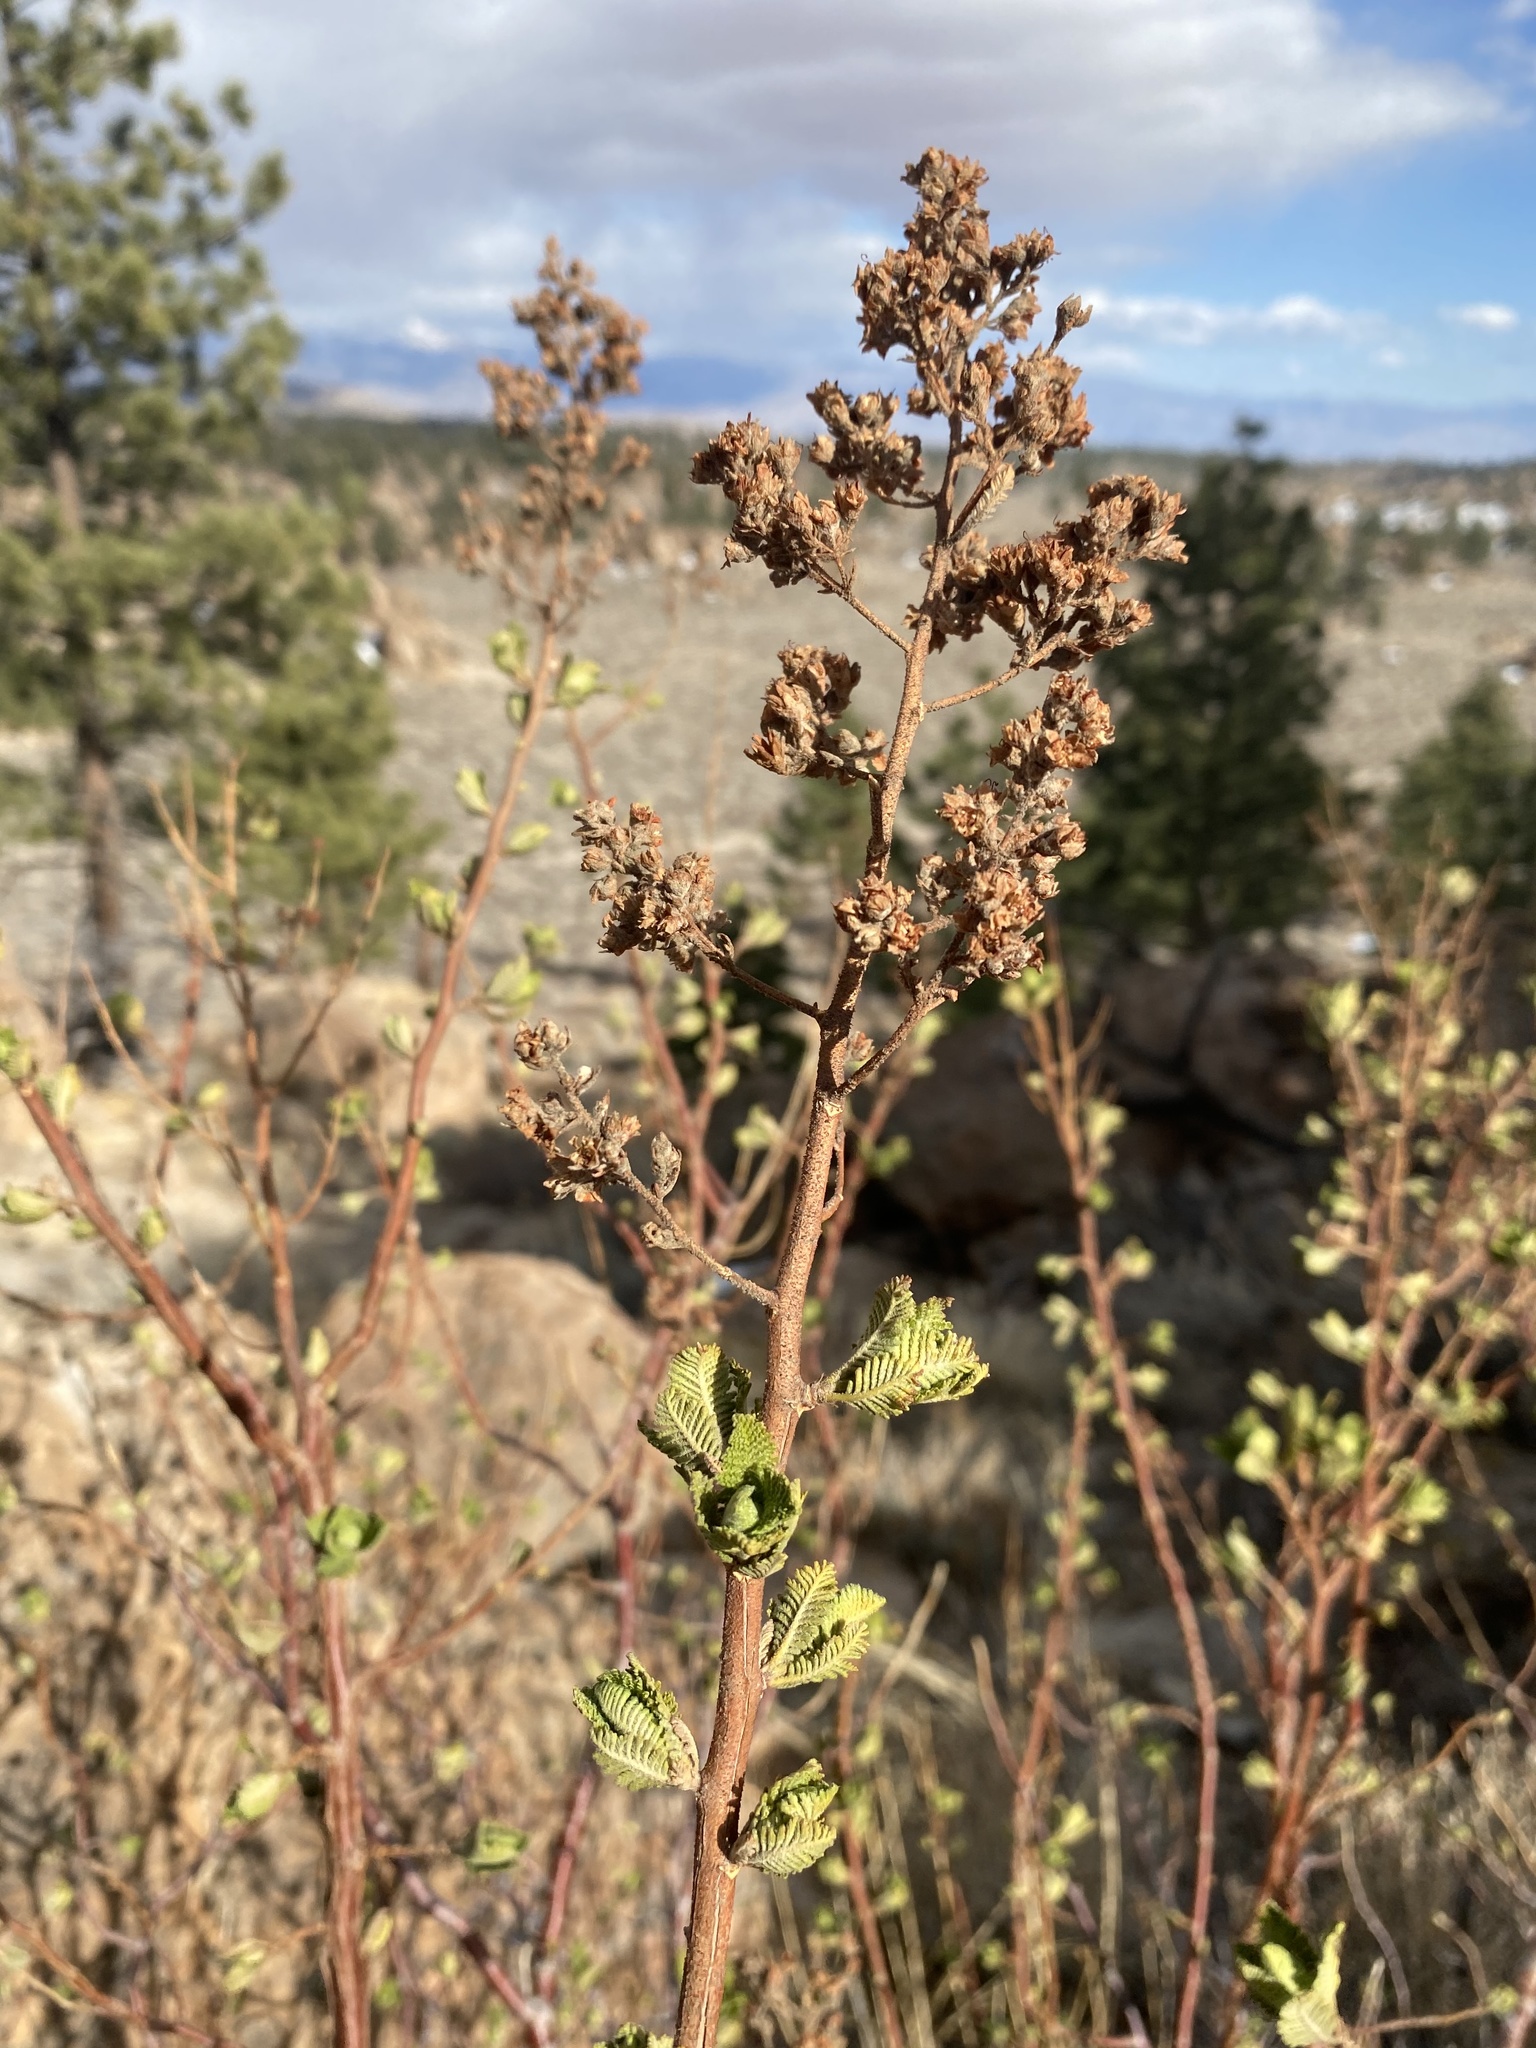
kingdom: Plantae
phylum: Tracheophyta
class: Magnoliopsida
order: Rosales
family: Rosaceae
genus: Chamaebatiaria
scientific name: Chamaebatiaria millefolium
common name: Fernbush
